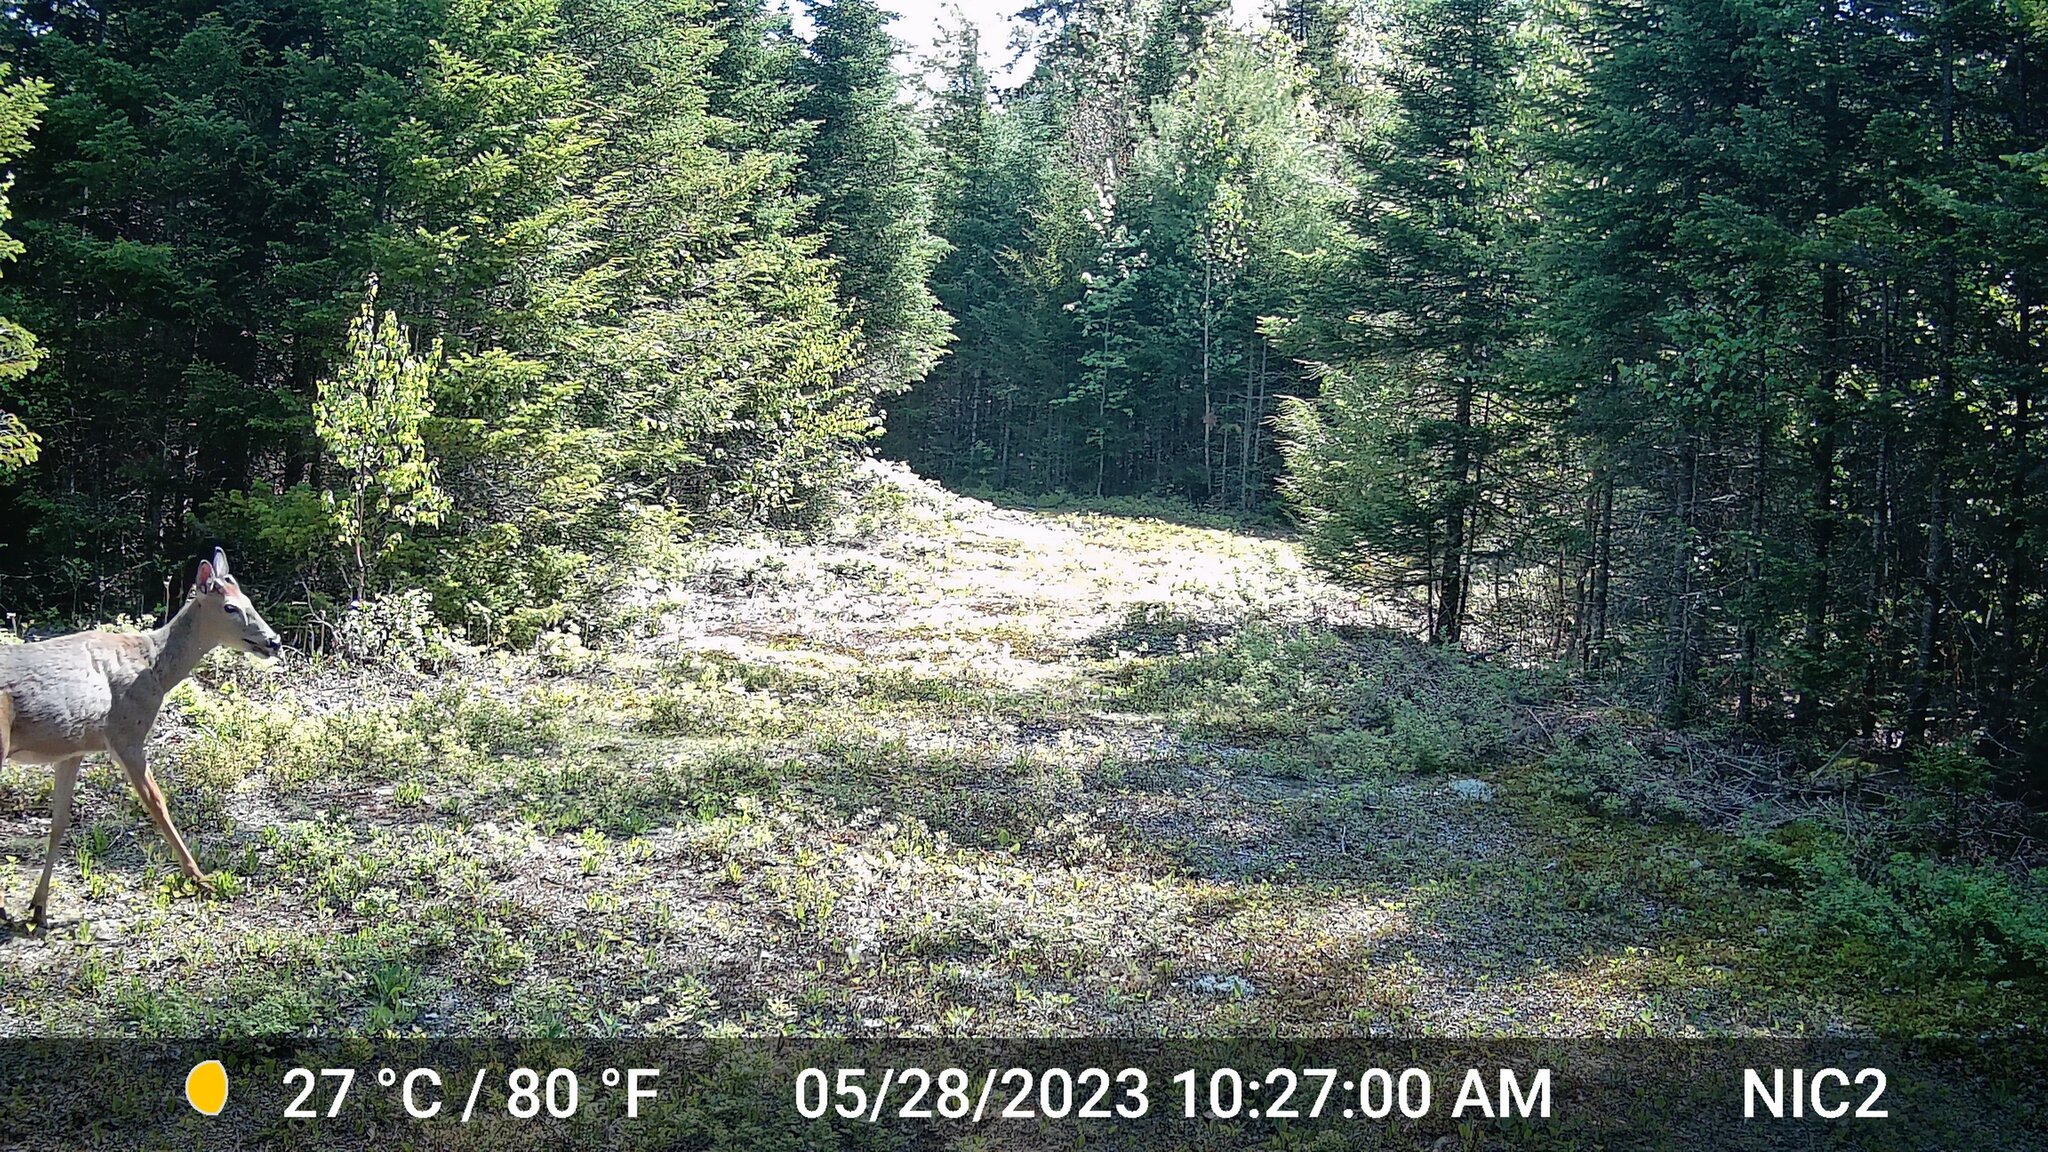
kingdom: Animalia
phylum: Chordata
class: Mammalia
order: Artiodactyla
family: Cervidae
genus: Odocoileus
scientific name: Odocoileus virginianus
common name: White-tailed deer
